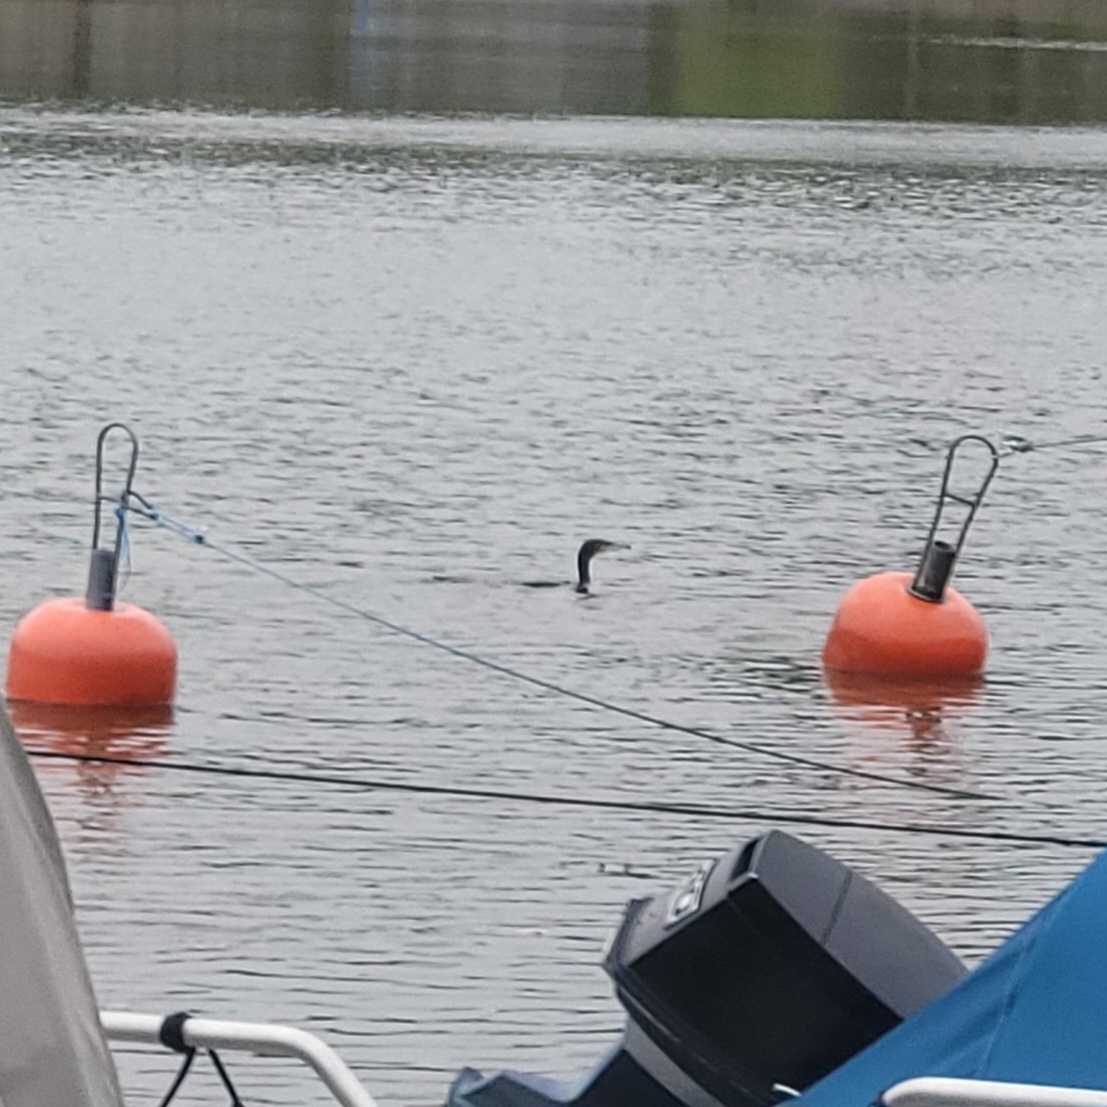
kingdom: Animalia
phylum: Chordata
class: Aves
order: Suliformes
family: Phalacrocoracidae
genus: Phalacrocorax
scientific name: Phalacrocorax carbo
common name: Great cormorant
